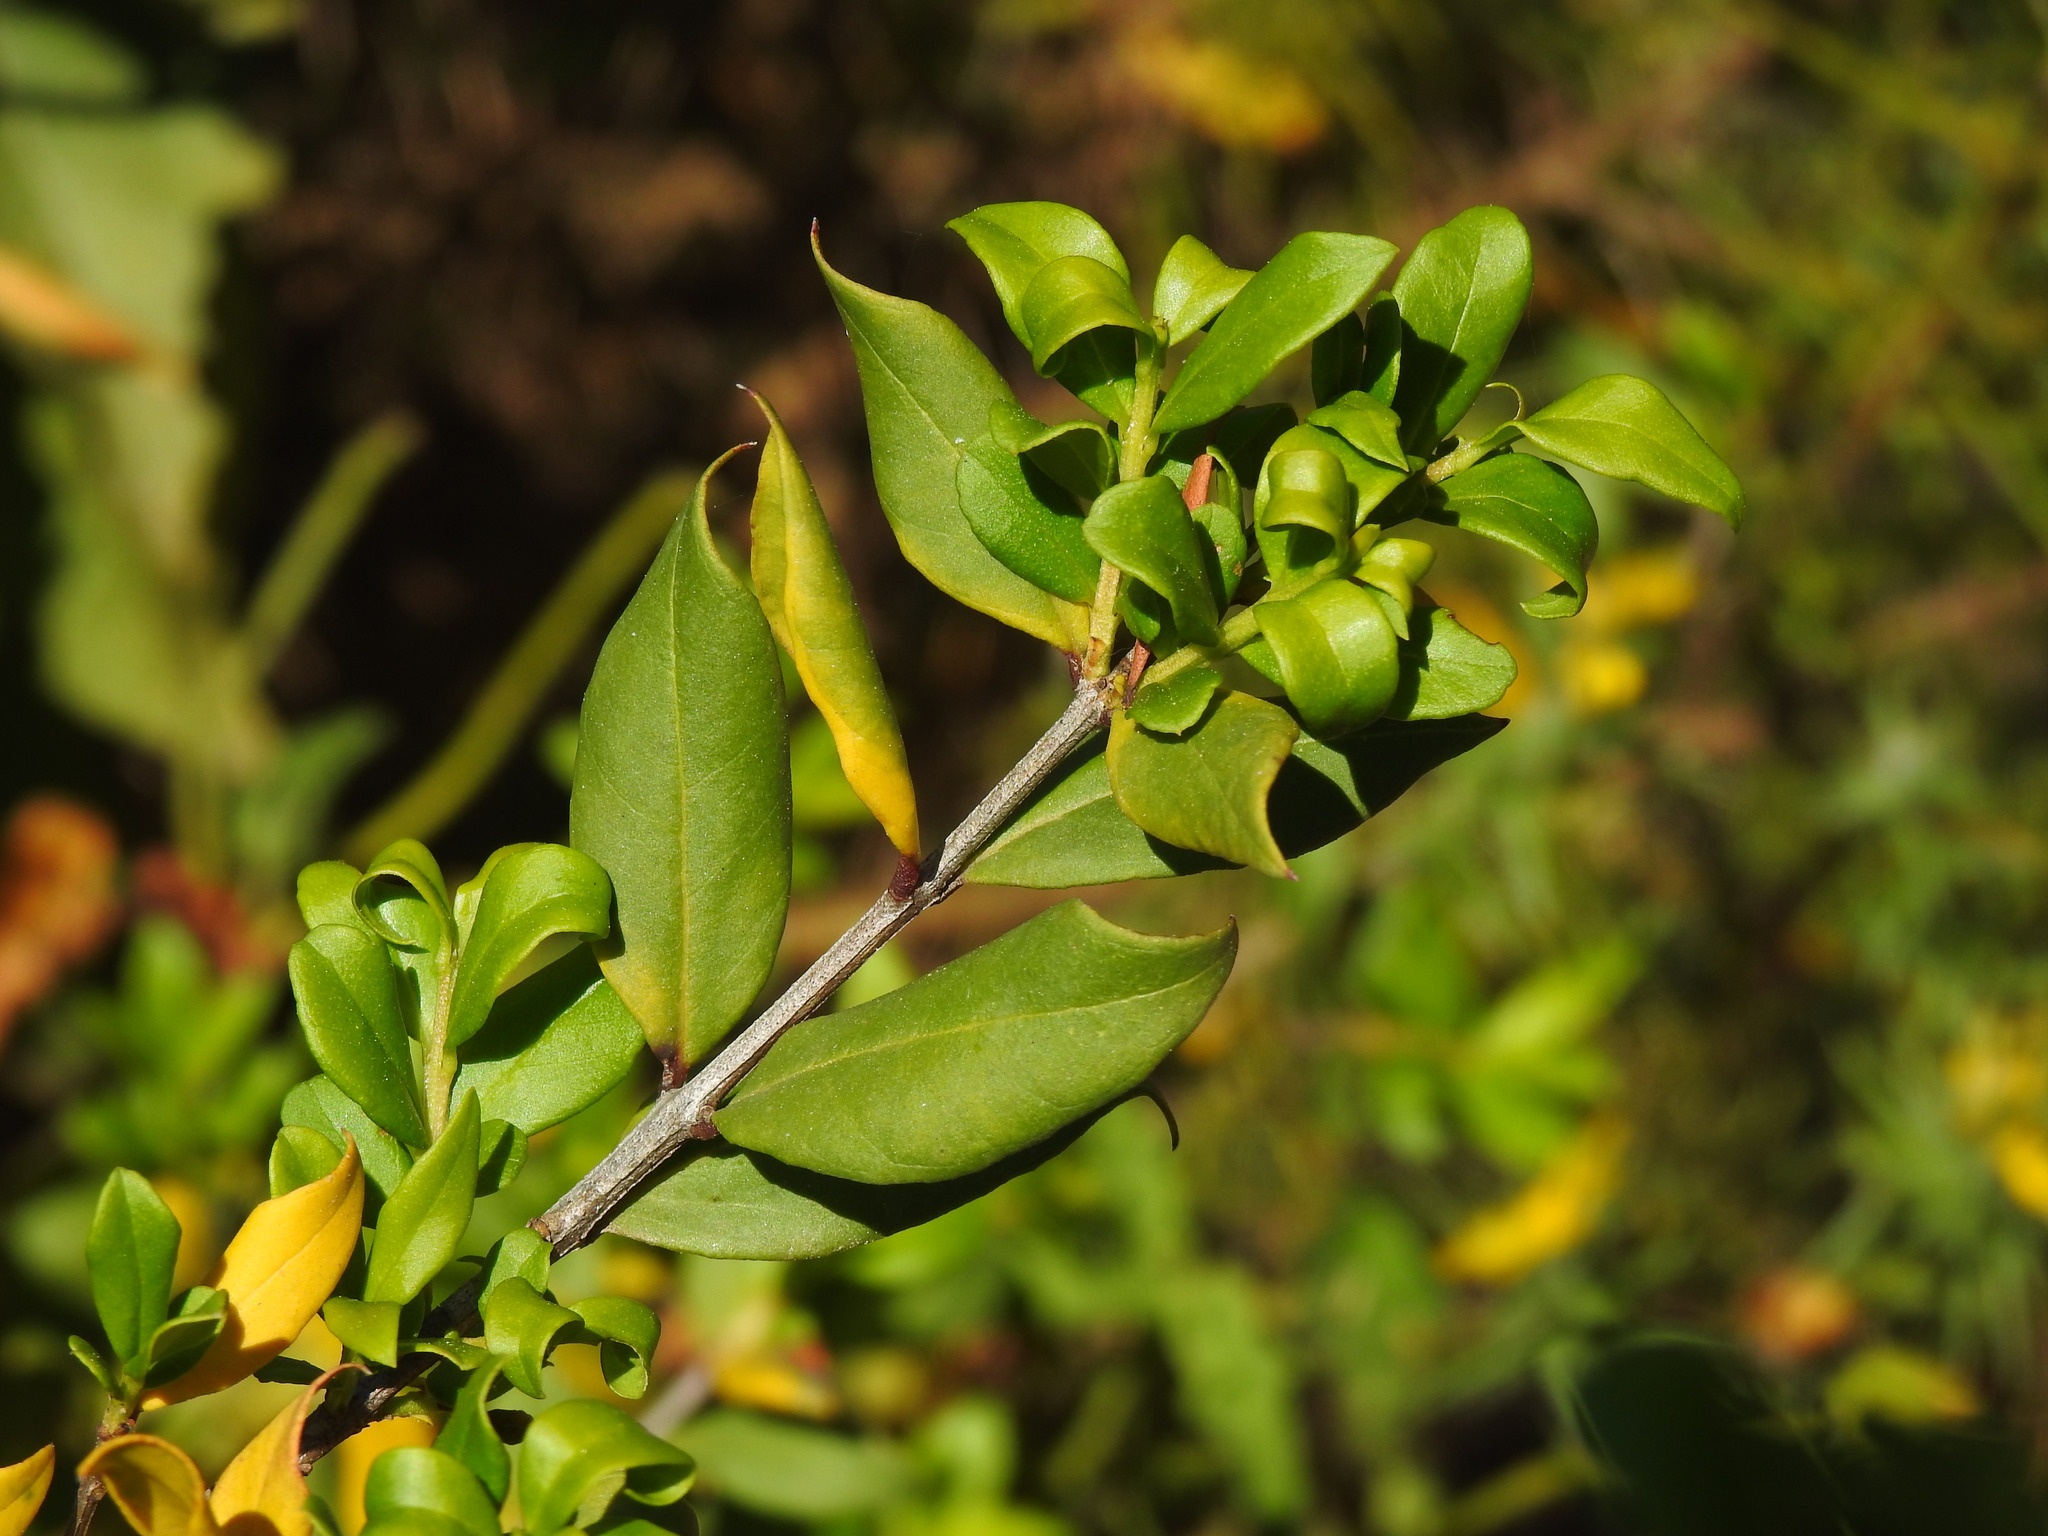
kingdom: Plantae
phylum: Tracheophyta
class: Magnoliopsida
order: Myrtales
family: Myrtaceae
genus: Myrtus
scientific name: Myrtus communis
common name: Myrtle
